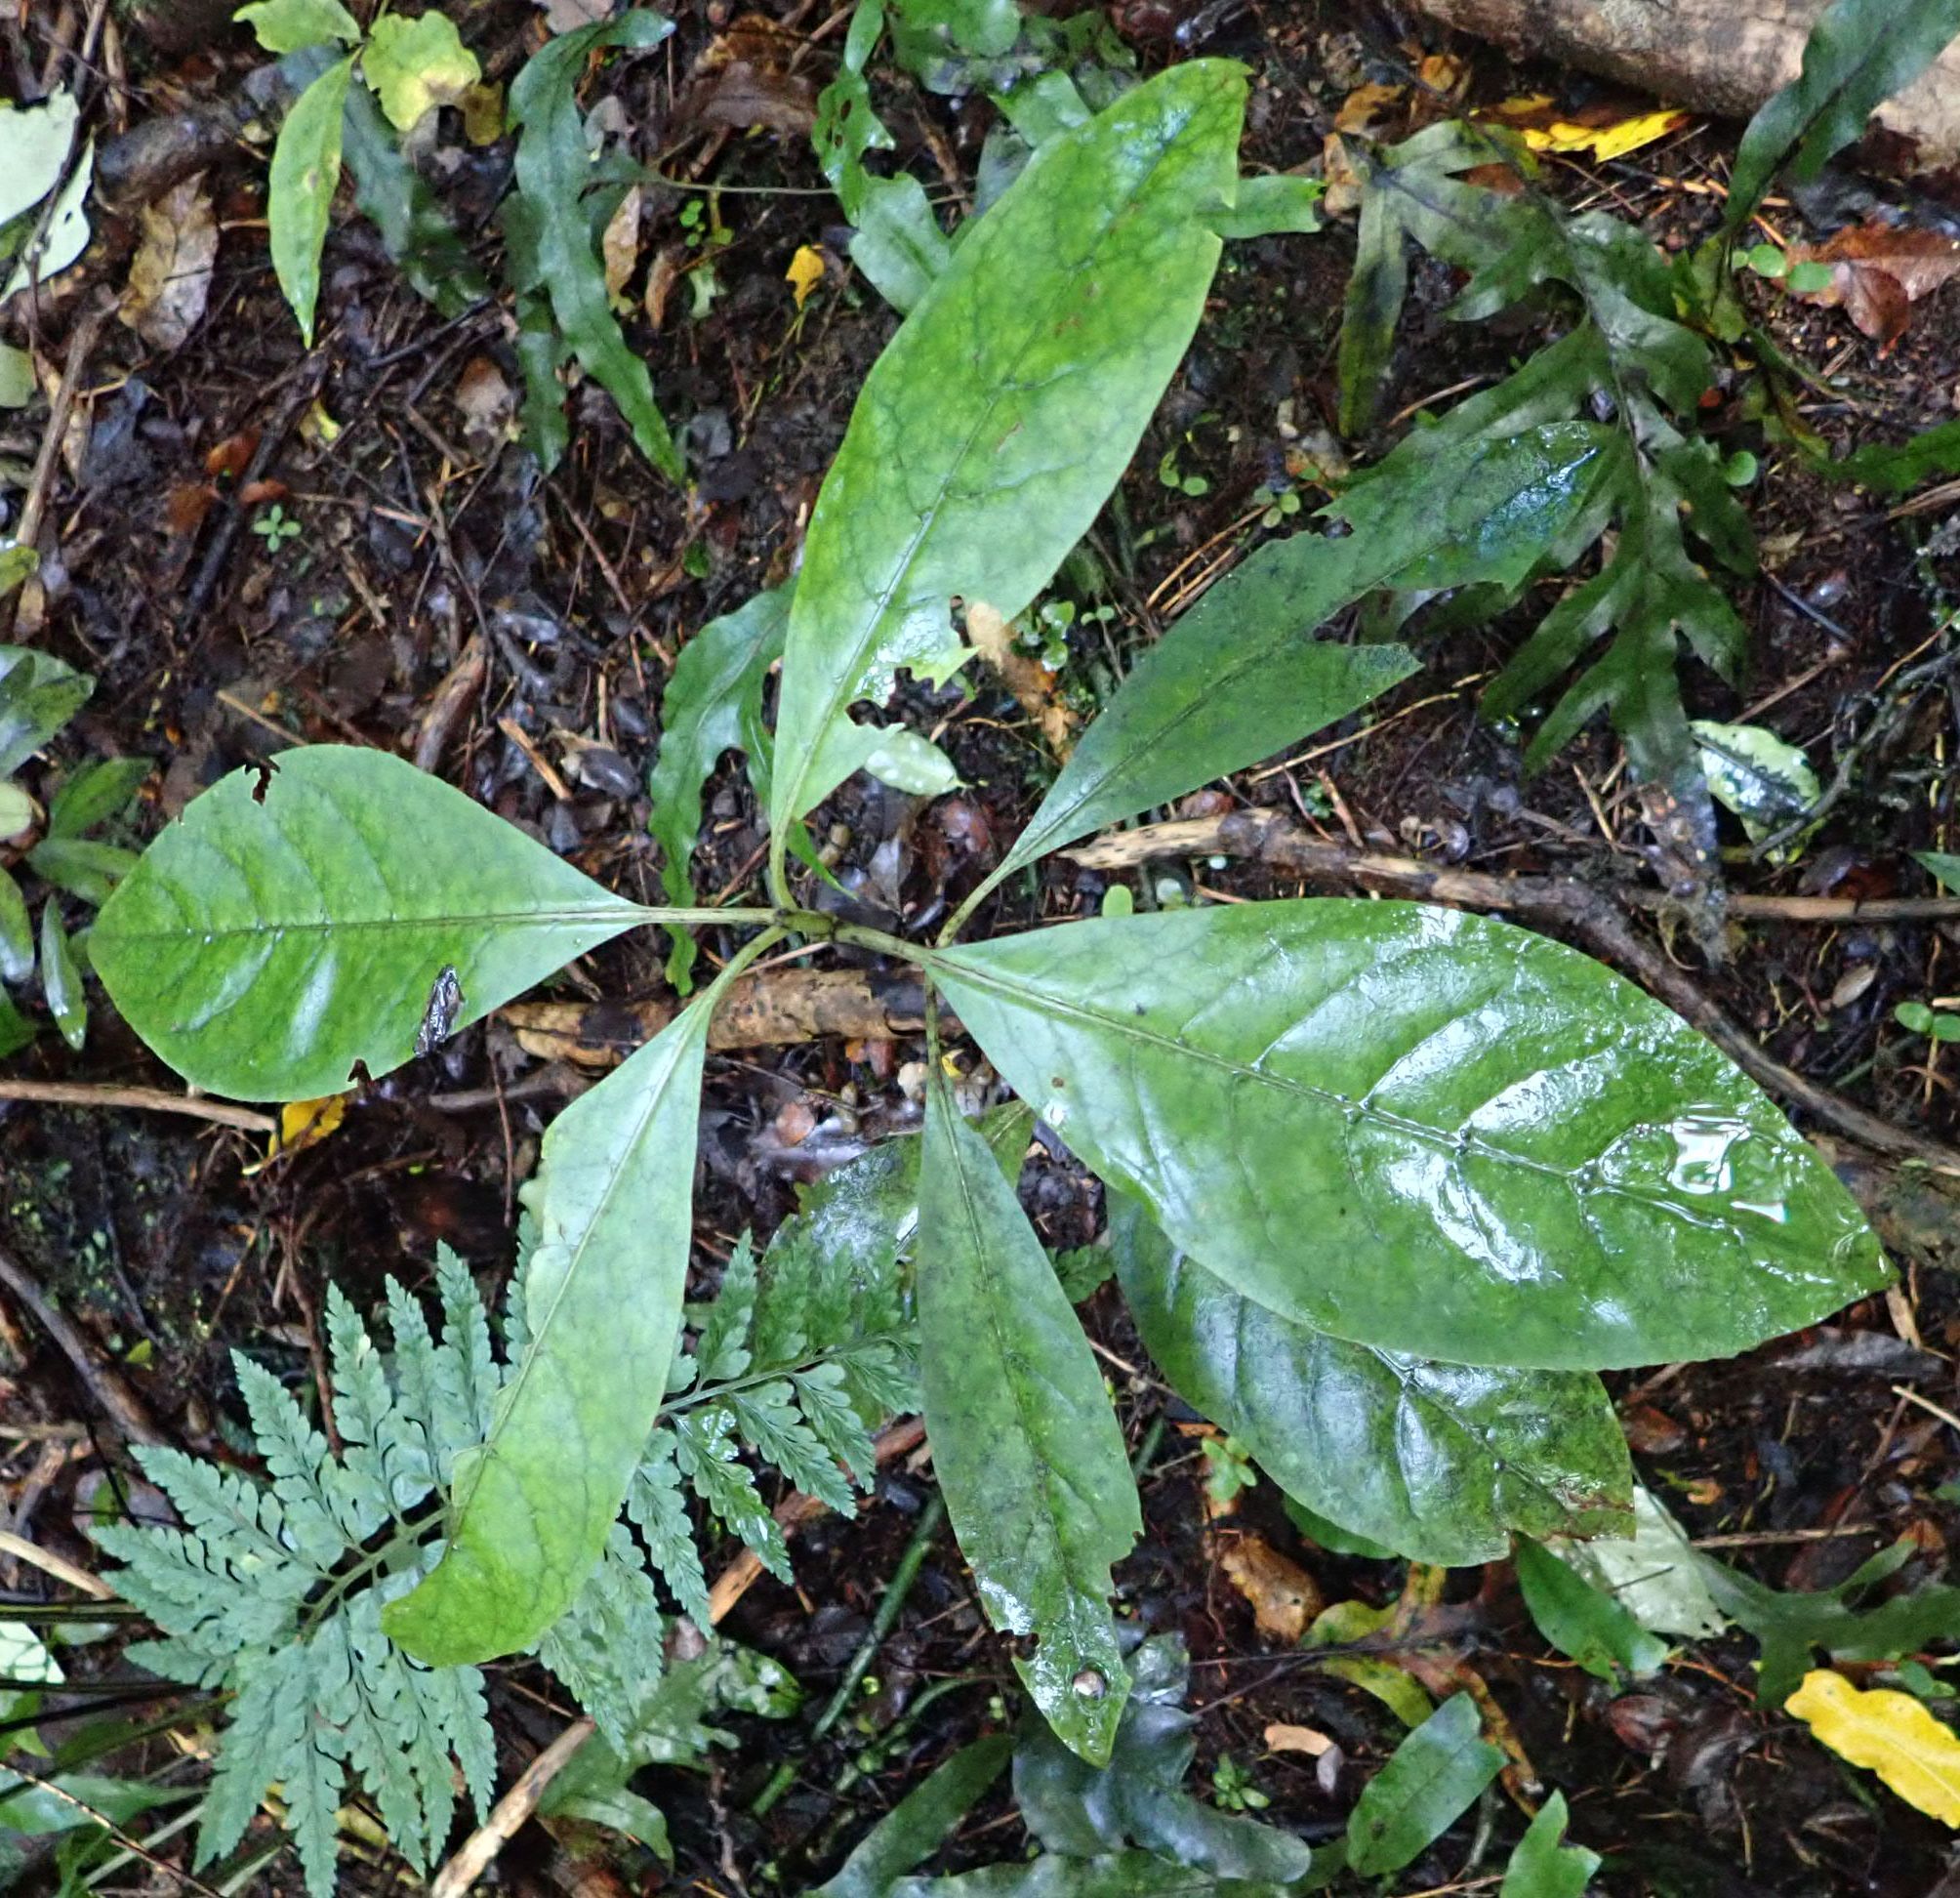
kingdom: Plantae
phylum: Tracheophyta
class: Magnoliopsida
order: Gentianales
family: Rubiaceae
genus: Coprosma
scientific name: Coprosma autumnalis
